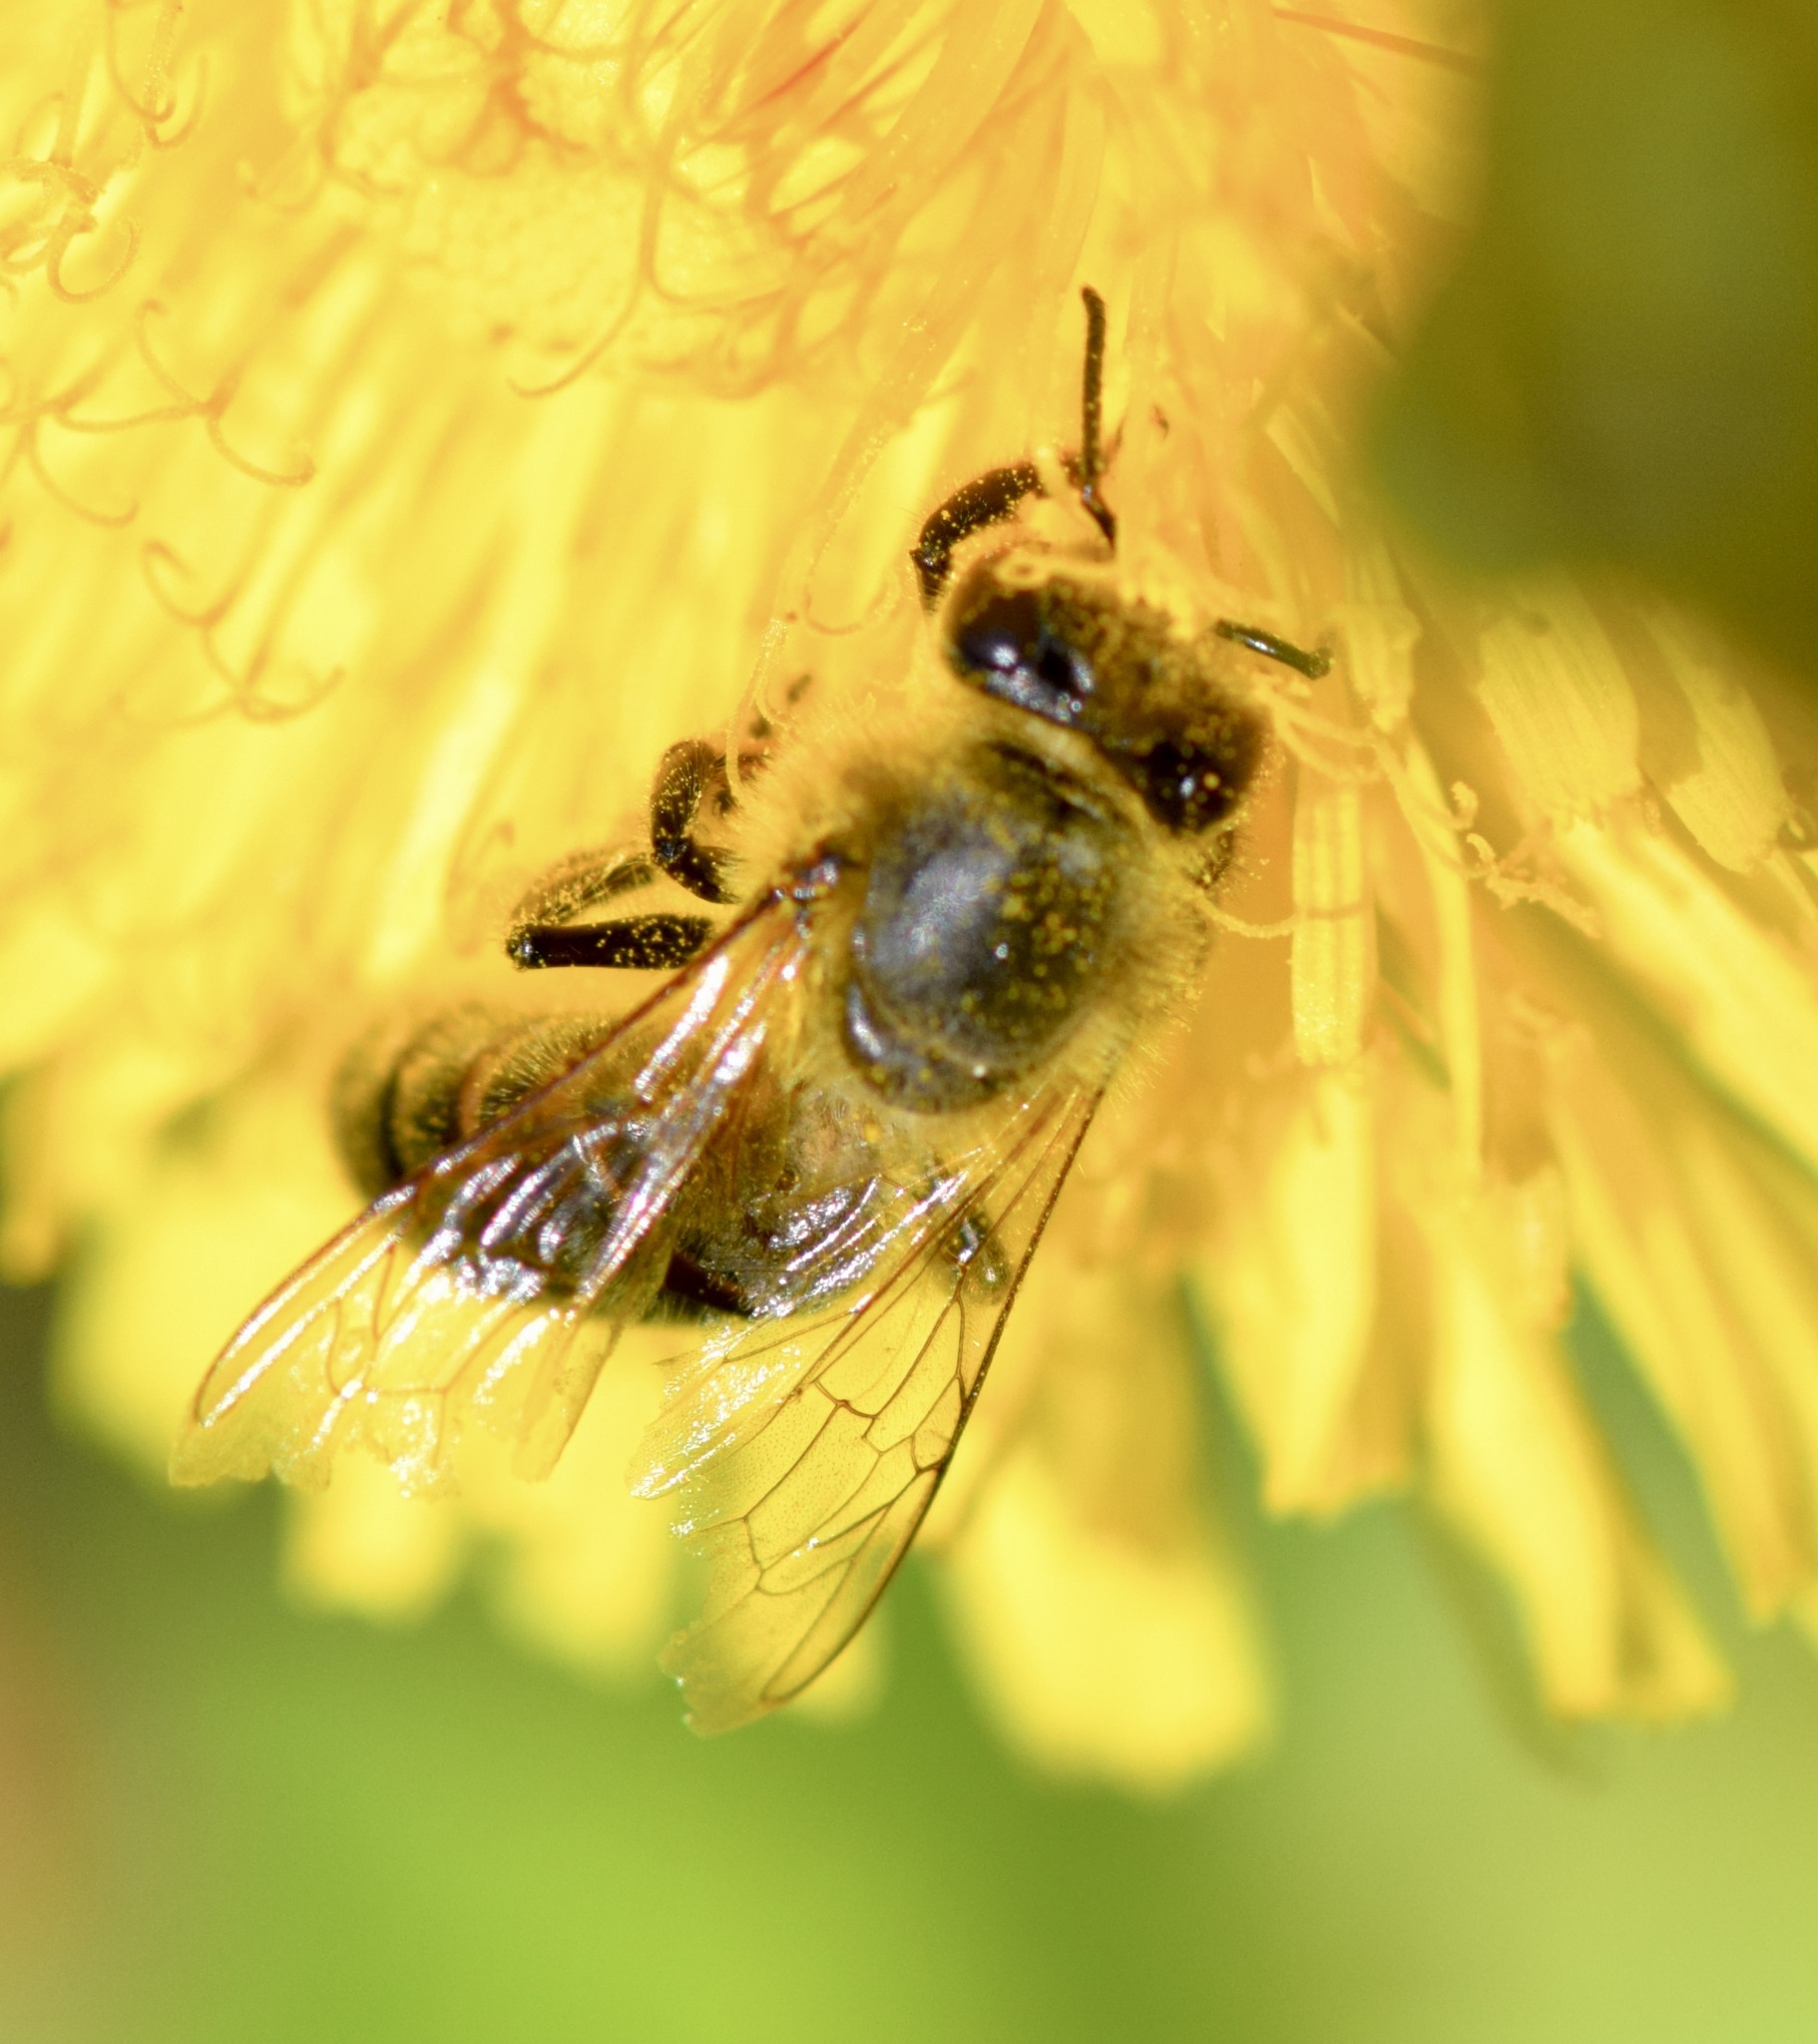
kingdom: Animalia
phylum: Arthropoda
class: Insecta
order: Hymenoptera
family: Apidae
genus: Apis
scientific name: Apis mellifera
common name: Honey bee
